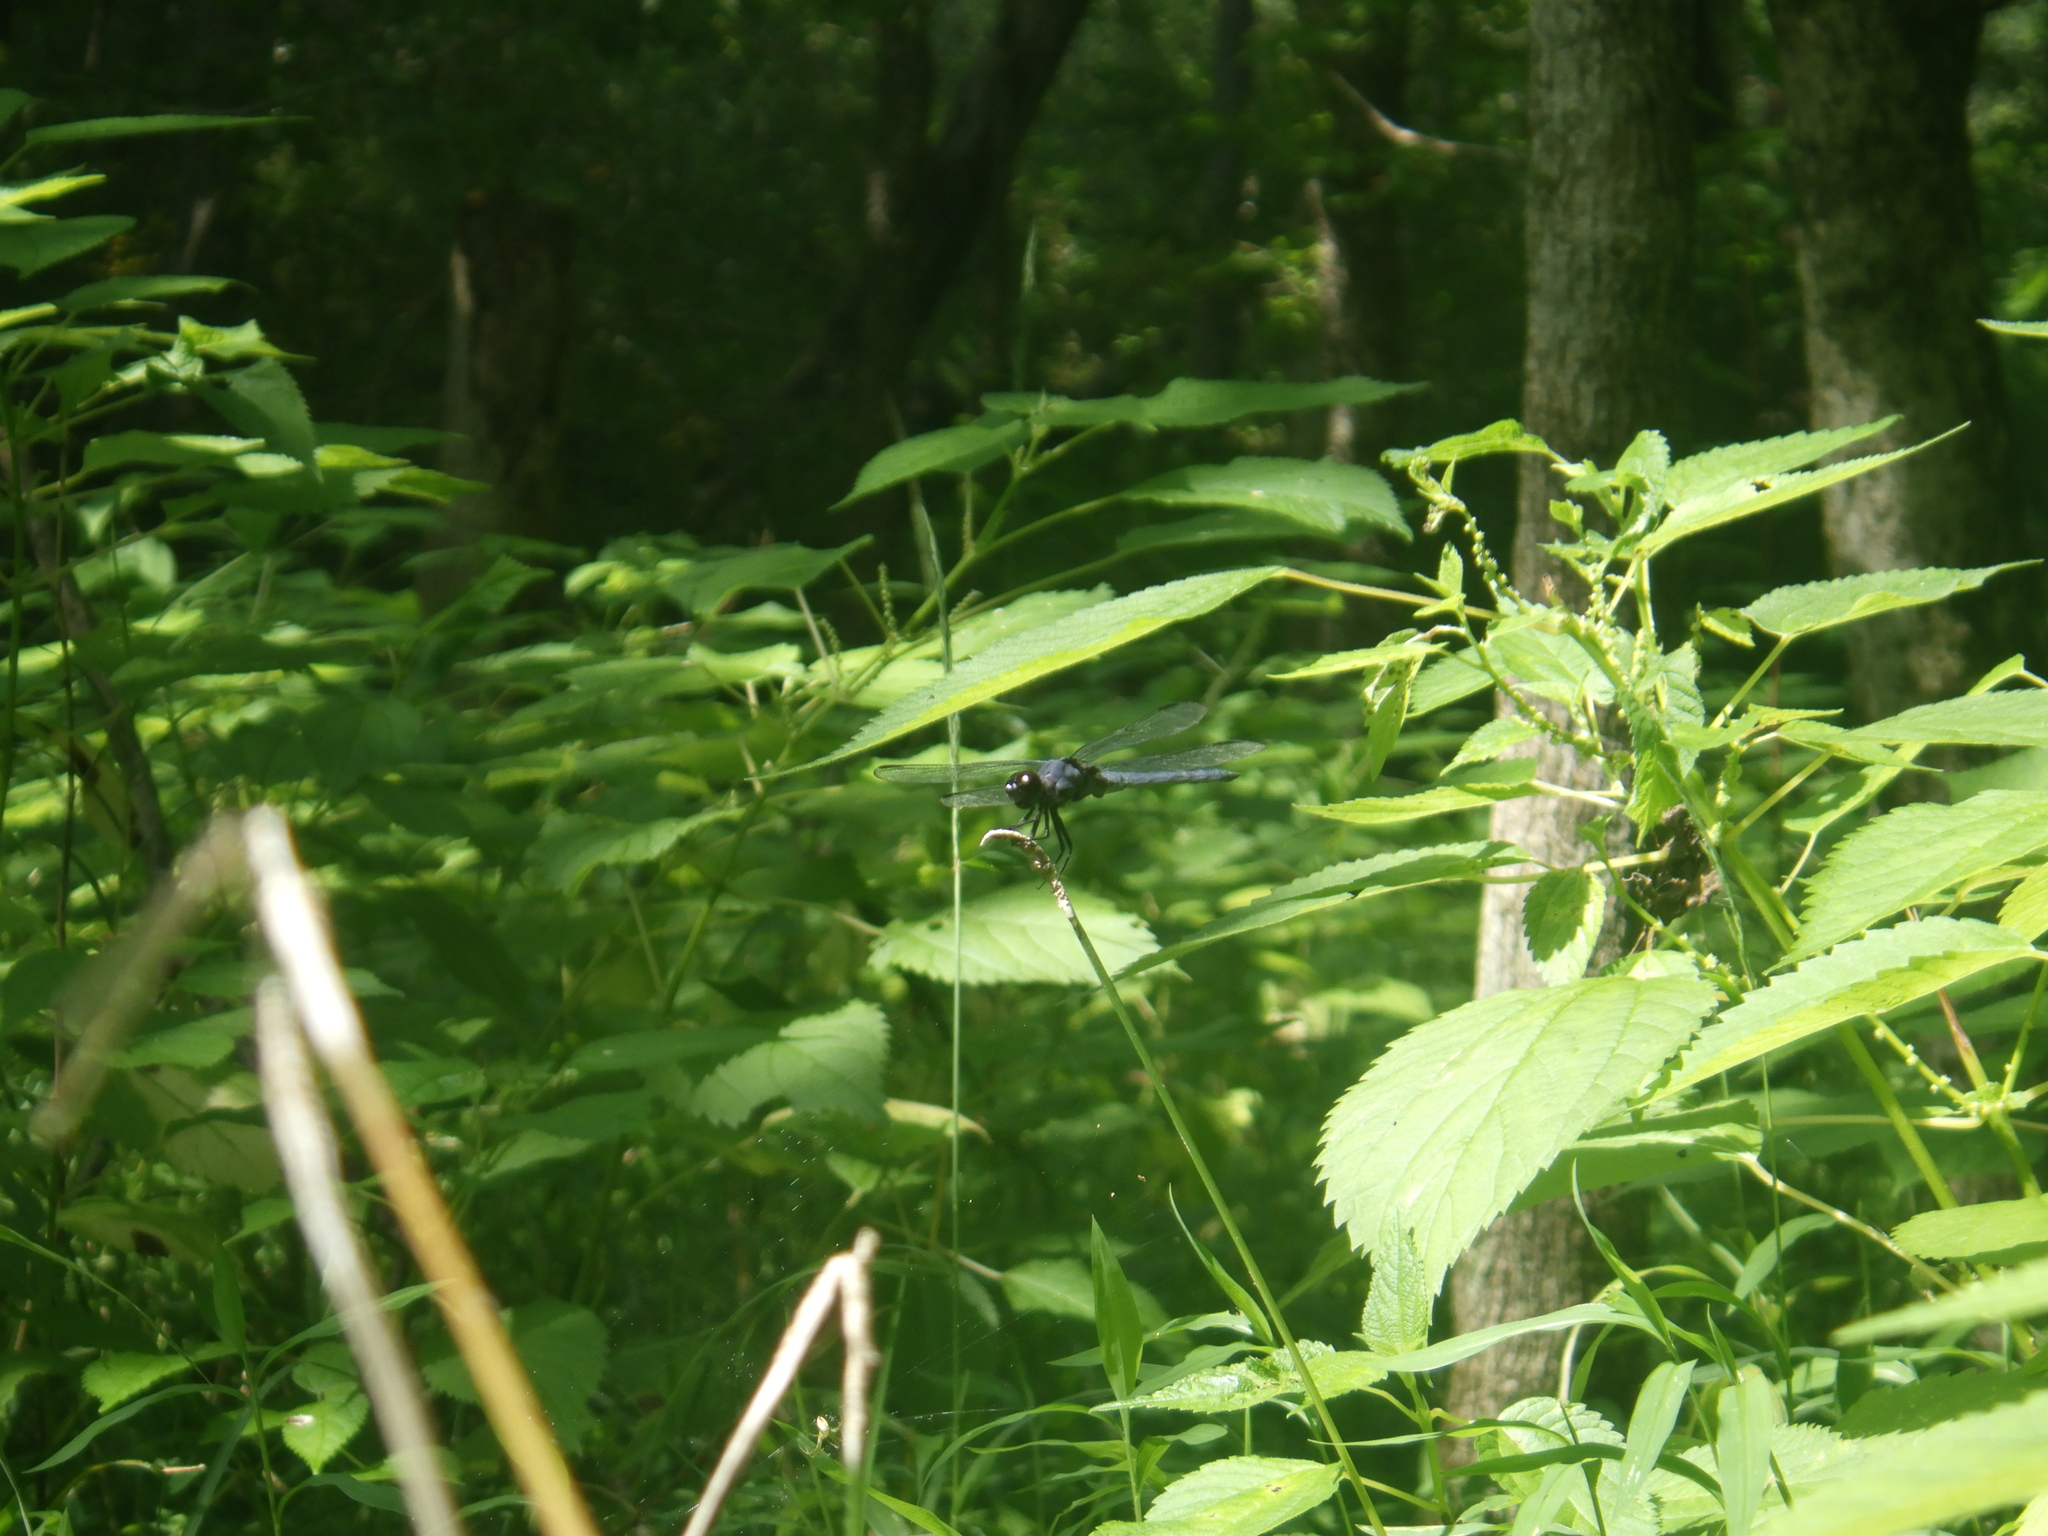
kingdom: Animalia
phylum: Arthropoda
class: Insecta
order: Odonata
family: Libellulidae
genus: Libellula
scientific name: Libellula incesta
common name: Slaty skimmer
